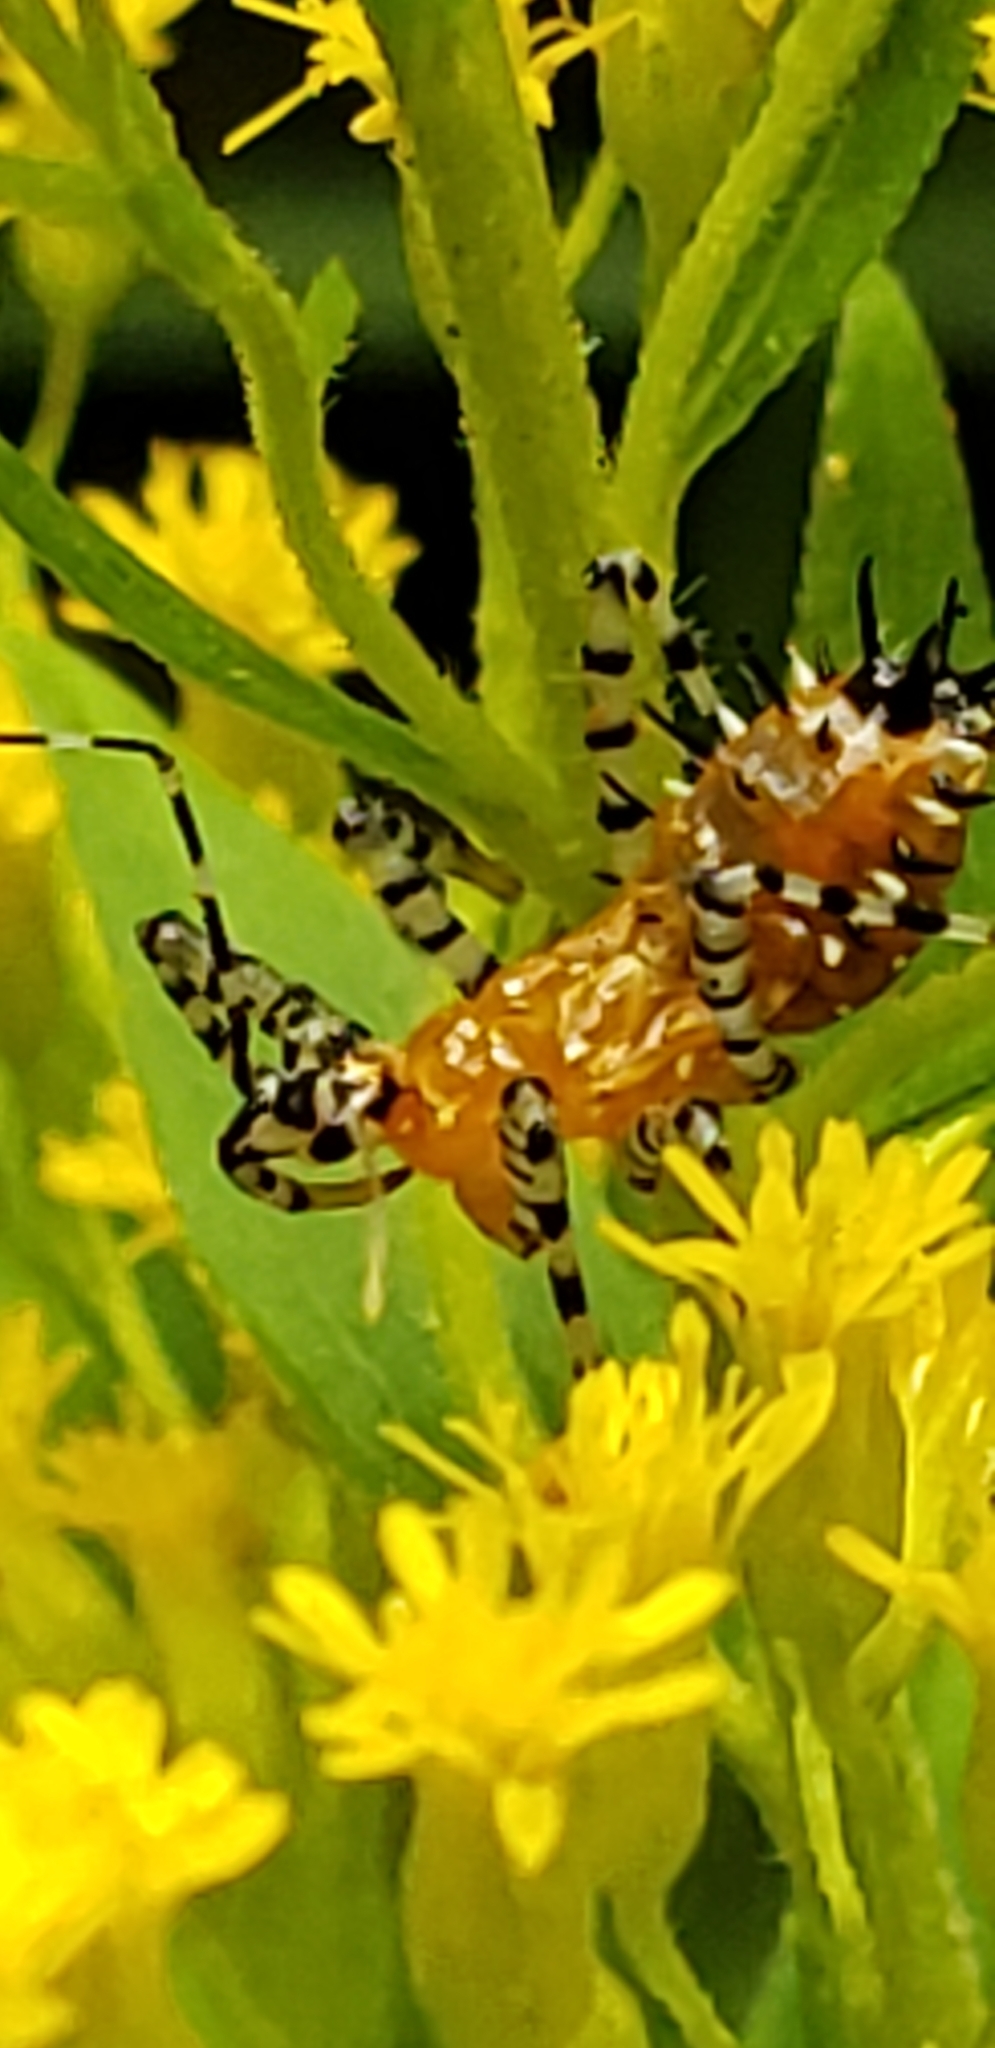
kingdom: Animalia
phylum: Arthropoda
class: Insecta
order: Hemiptera
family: Reduviidae
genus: Pselliopus
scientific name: Pselliopus cinctus
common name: Ringed assassin bug
